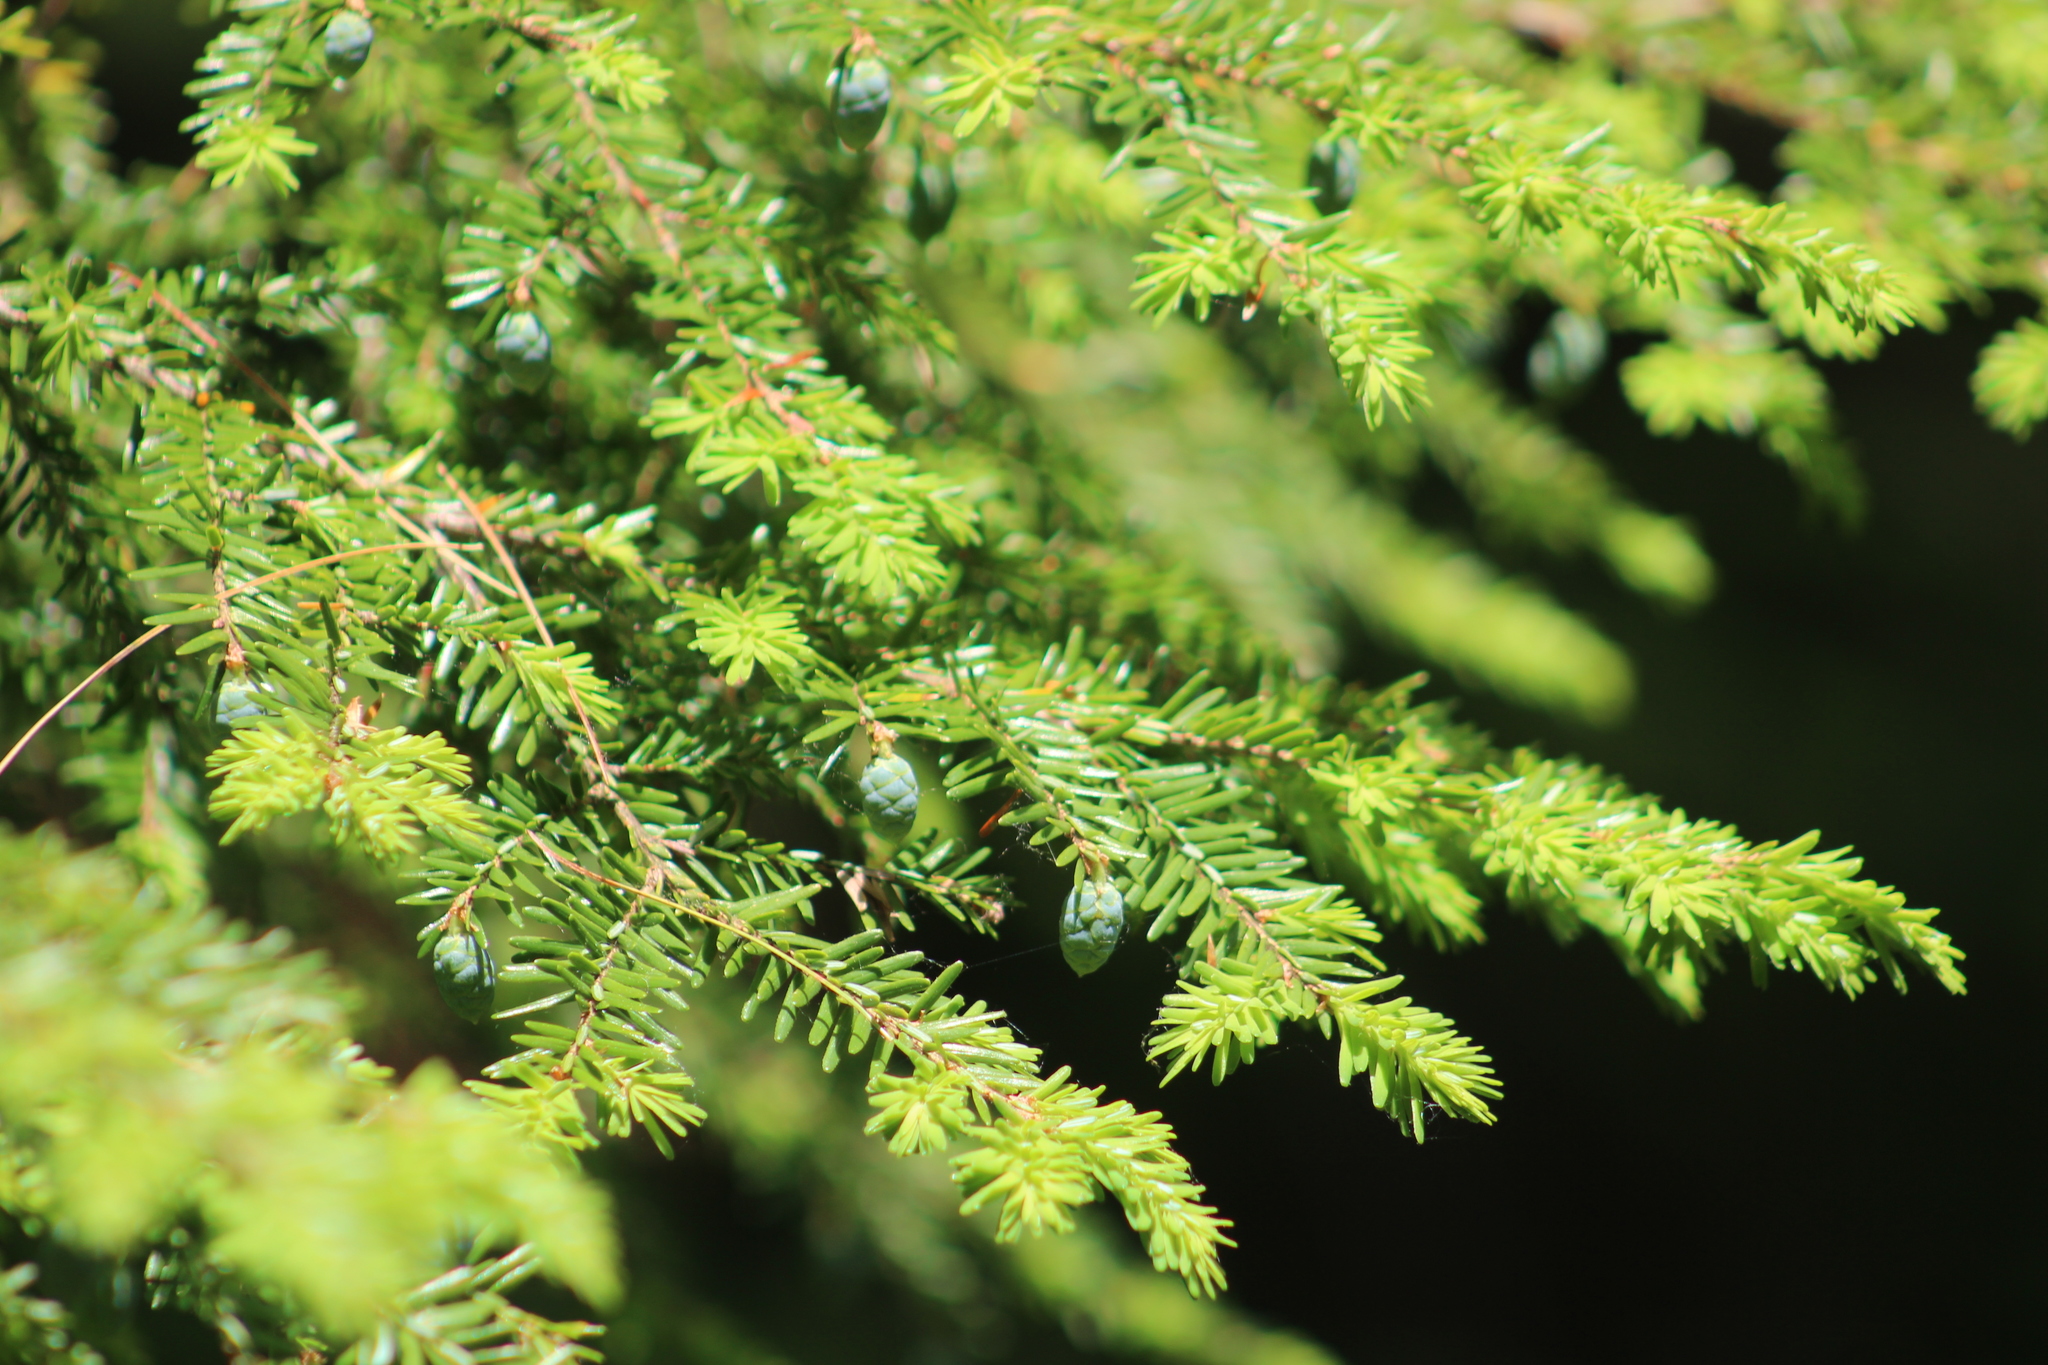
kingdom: Plantae
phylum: Tracheophyta
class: Pinopsida
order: Pinales
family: Pinaceae
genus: Tsuga
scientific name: Tsuga canadensis
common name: Eastern hemlock
